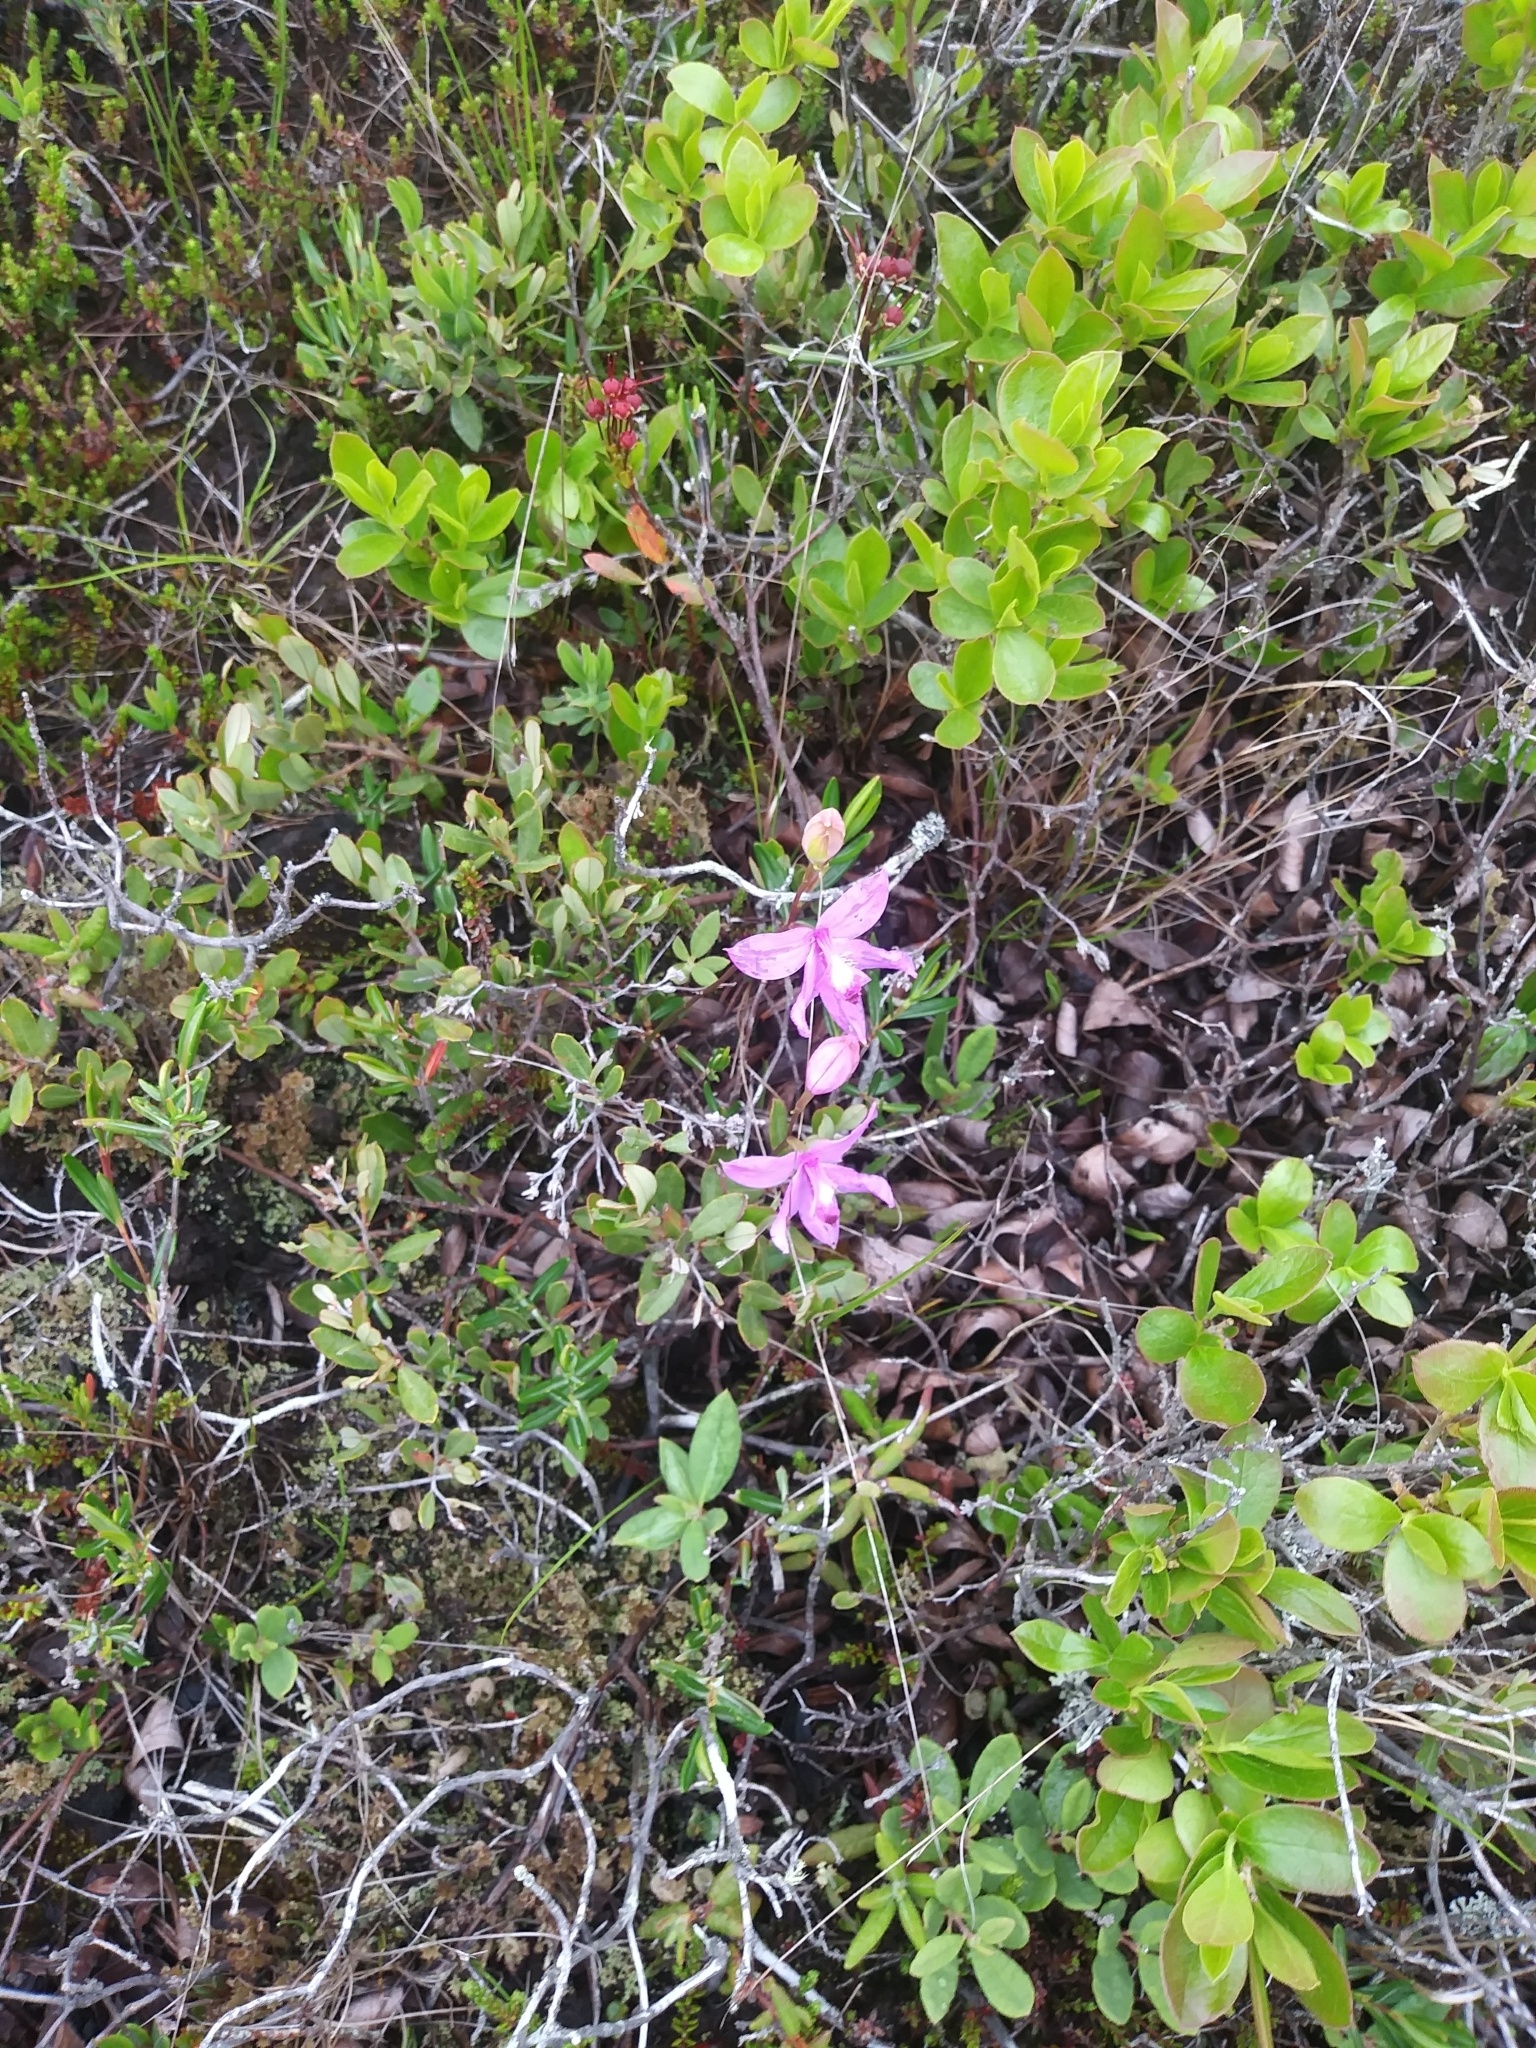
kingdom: Plantae
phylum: Tracheophyta
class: Liliopsida
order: Asparagales
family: Orchidaceae
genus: Calopogon
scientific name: Calopogon tuberosus
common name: Grass-pink
